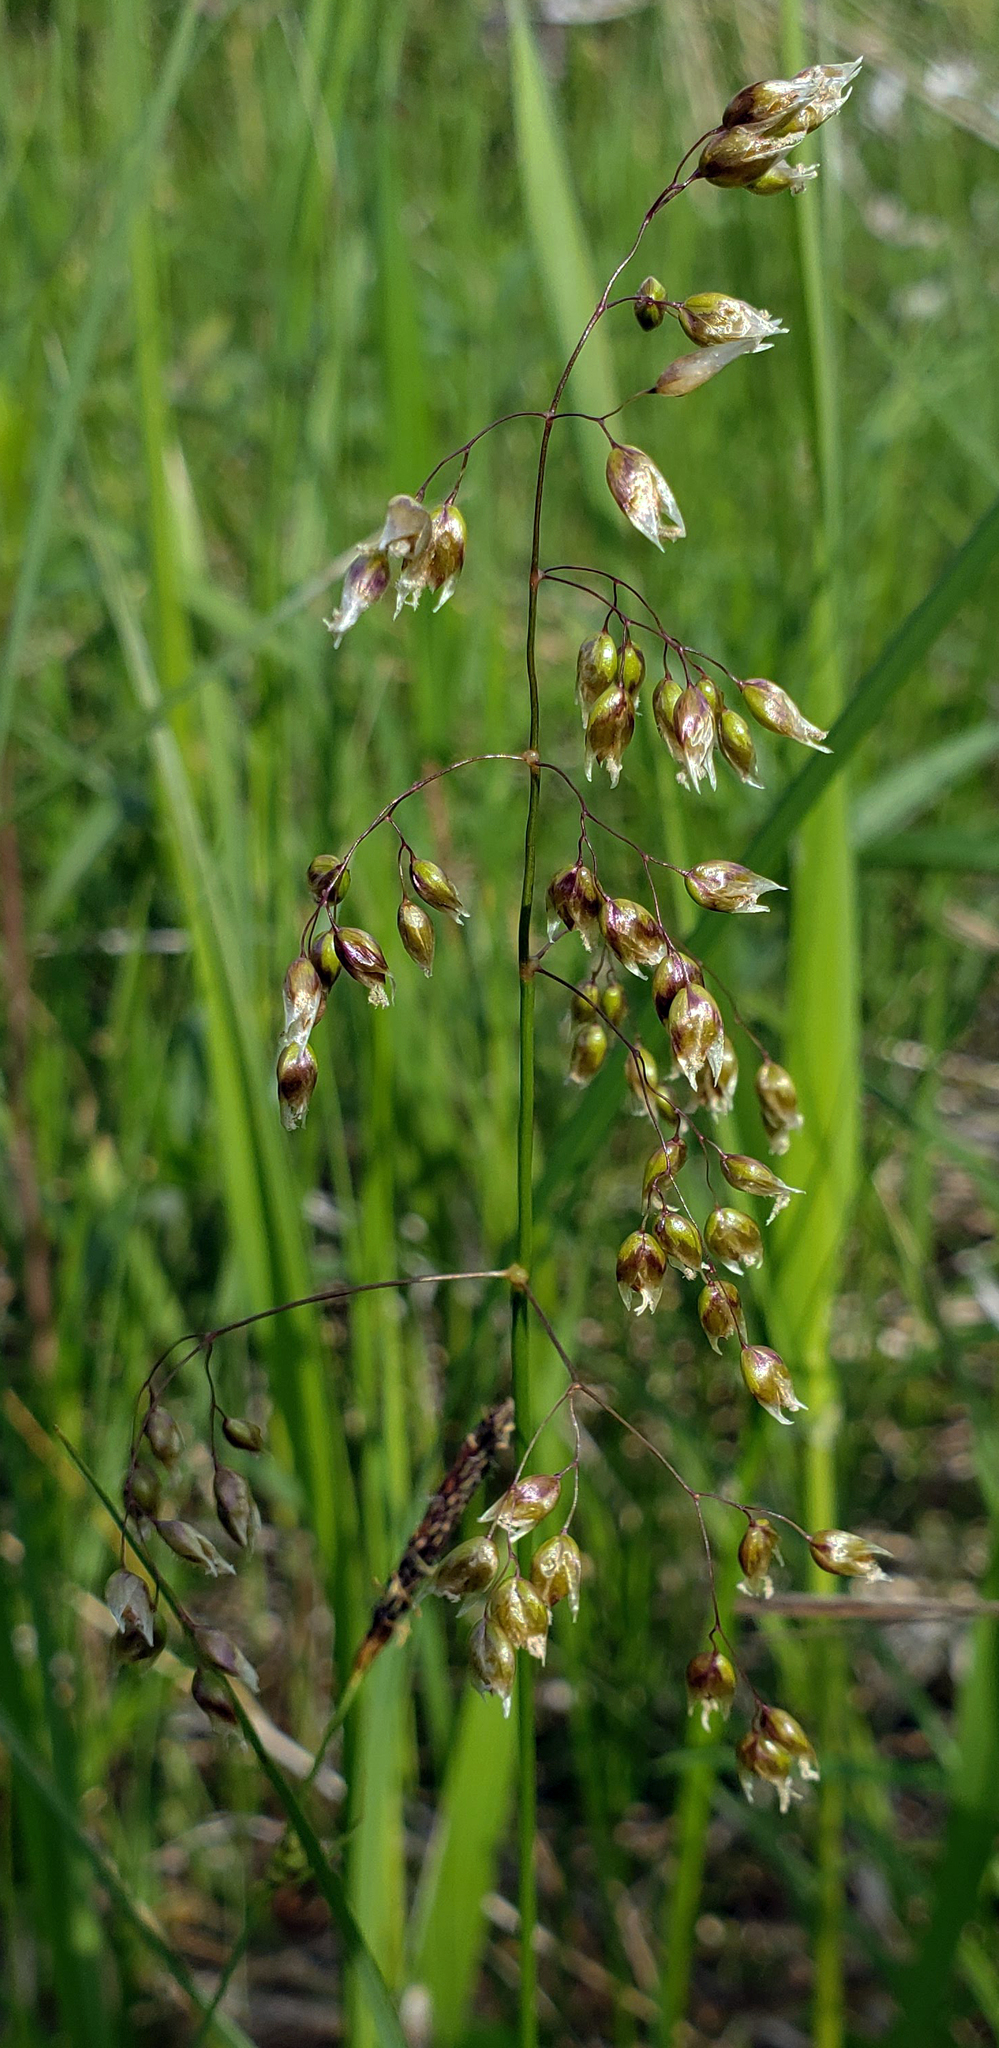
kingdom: Plantae
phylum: Tracheophyta
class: Liliopsida
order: Poales
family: Poaceae
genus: Anthoxanthum
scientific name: Anthoxanthum nitens
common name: Holy grass
